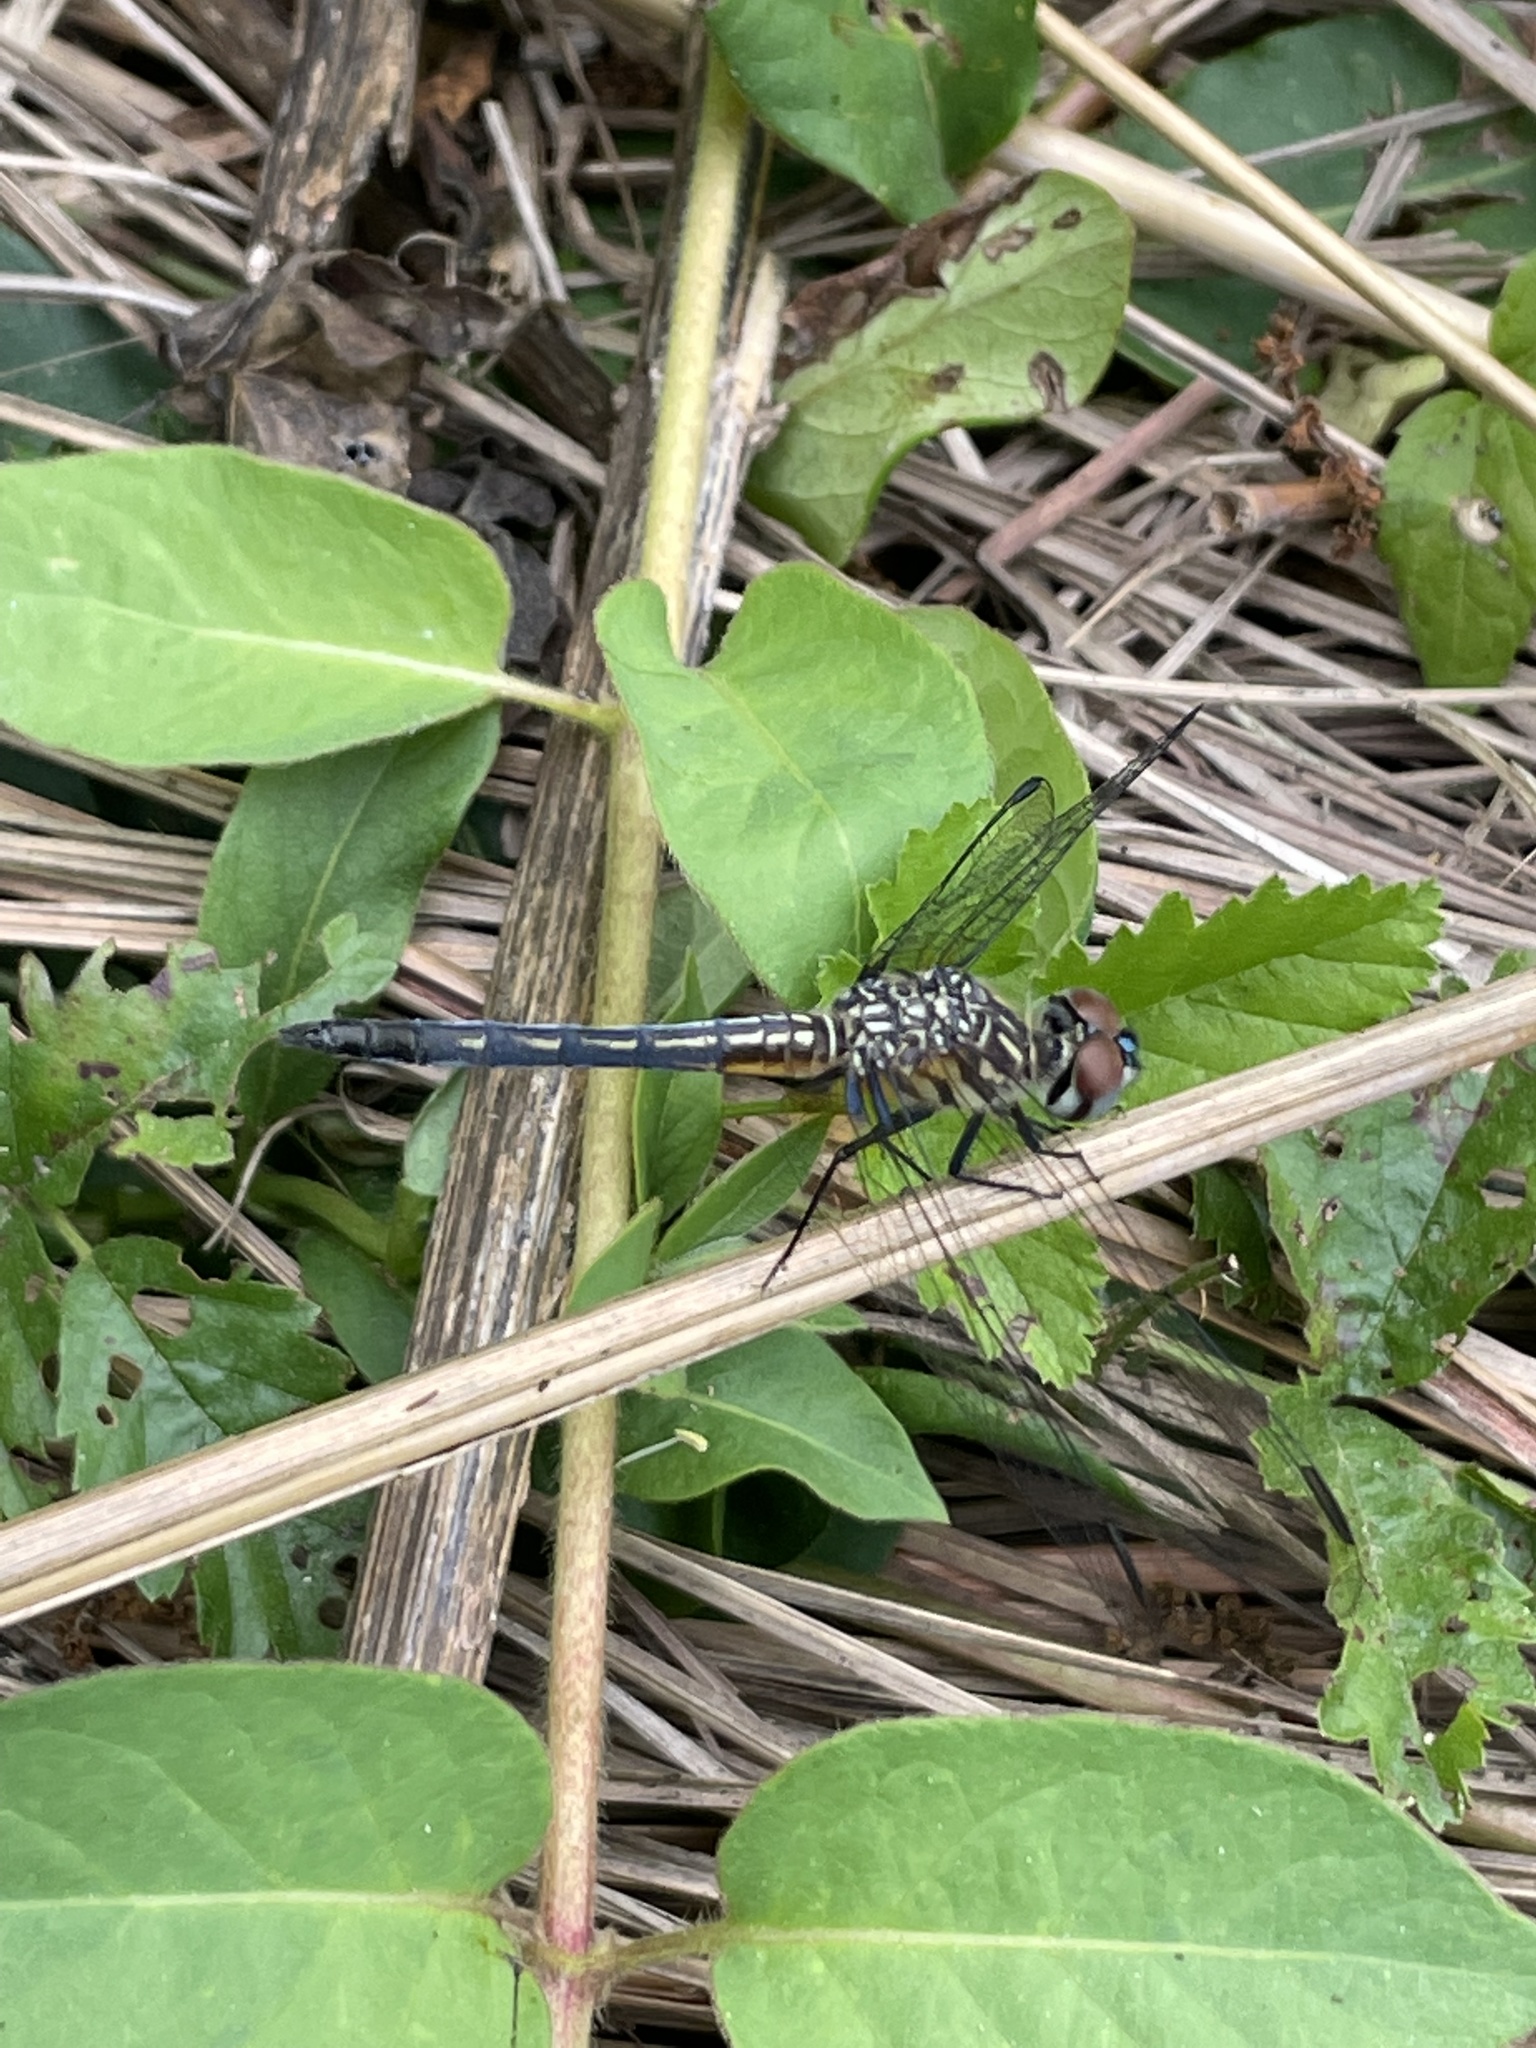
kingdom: Animalia
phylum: Arthropoda
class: Insecta
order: Odonata
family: Libellulidae
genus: Pachydiplax
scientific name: Pachydiplax longipennis
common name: Blue dasher
